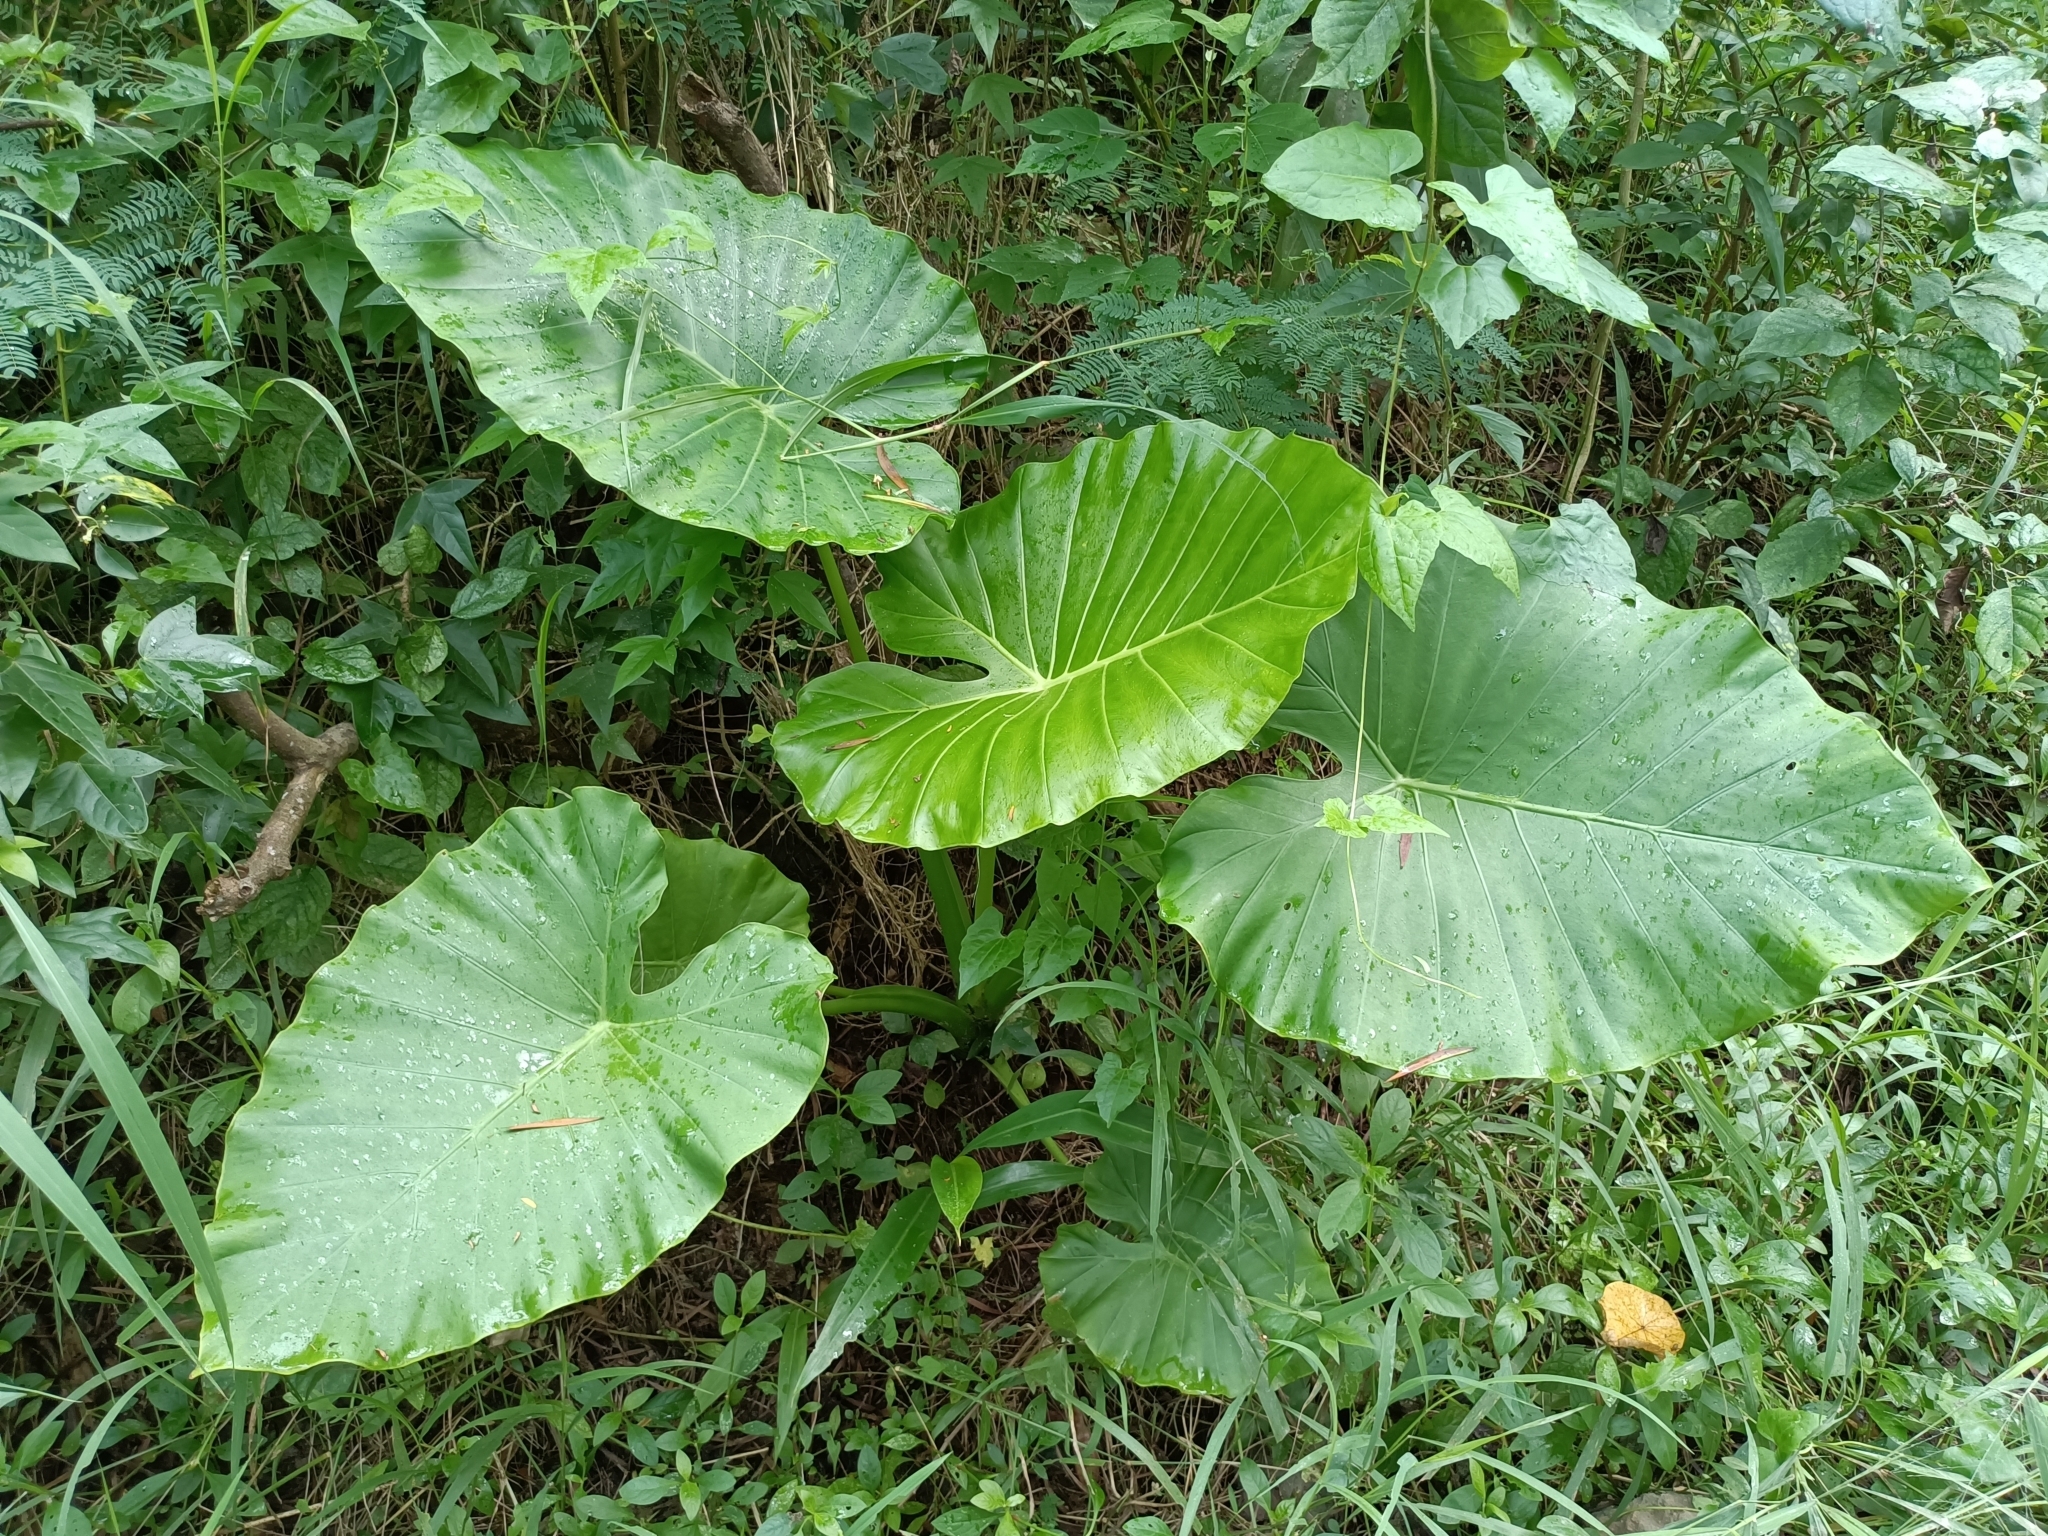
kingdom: Plantae
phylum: Tracheophyta
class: Liliopsida
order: Alismatales
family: Araceae
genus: Alocasia
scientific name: Alocasia odora
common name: Asian taro
